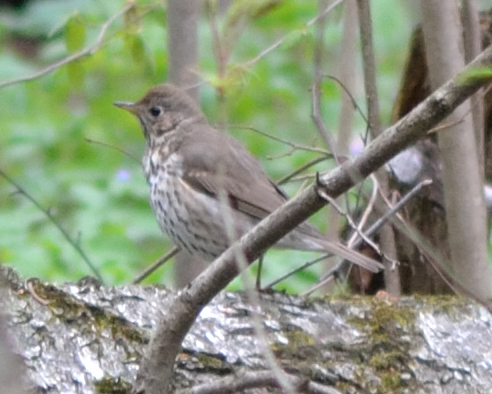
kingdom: Animalia
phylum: Chordata
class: Aves
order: Passeriformes
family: Turdidae
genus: Turdus
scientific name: Turdus philomelos
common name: Song thrush
